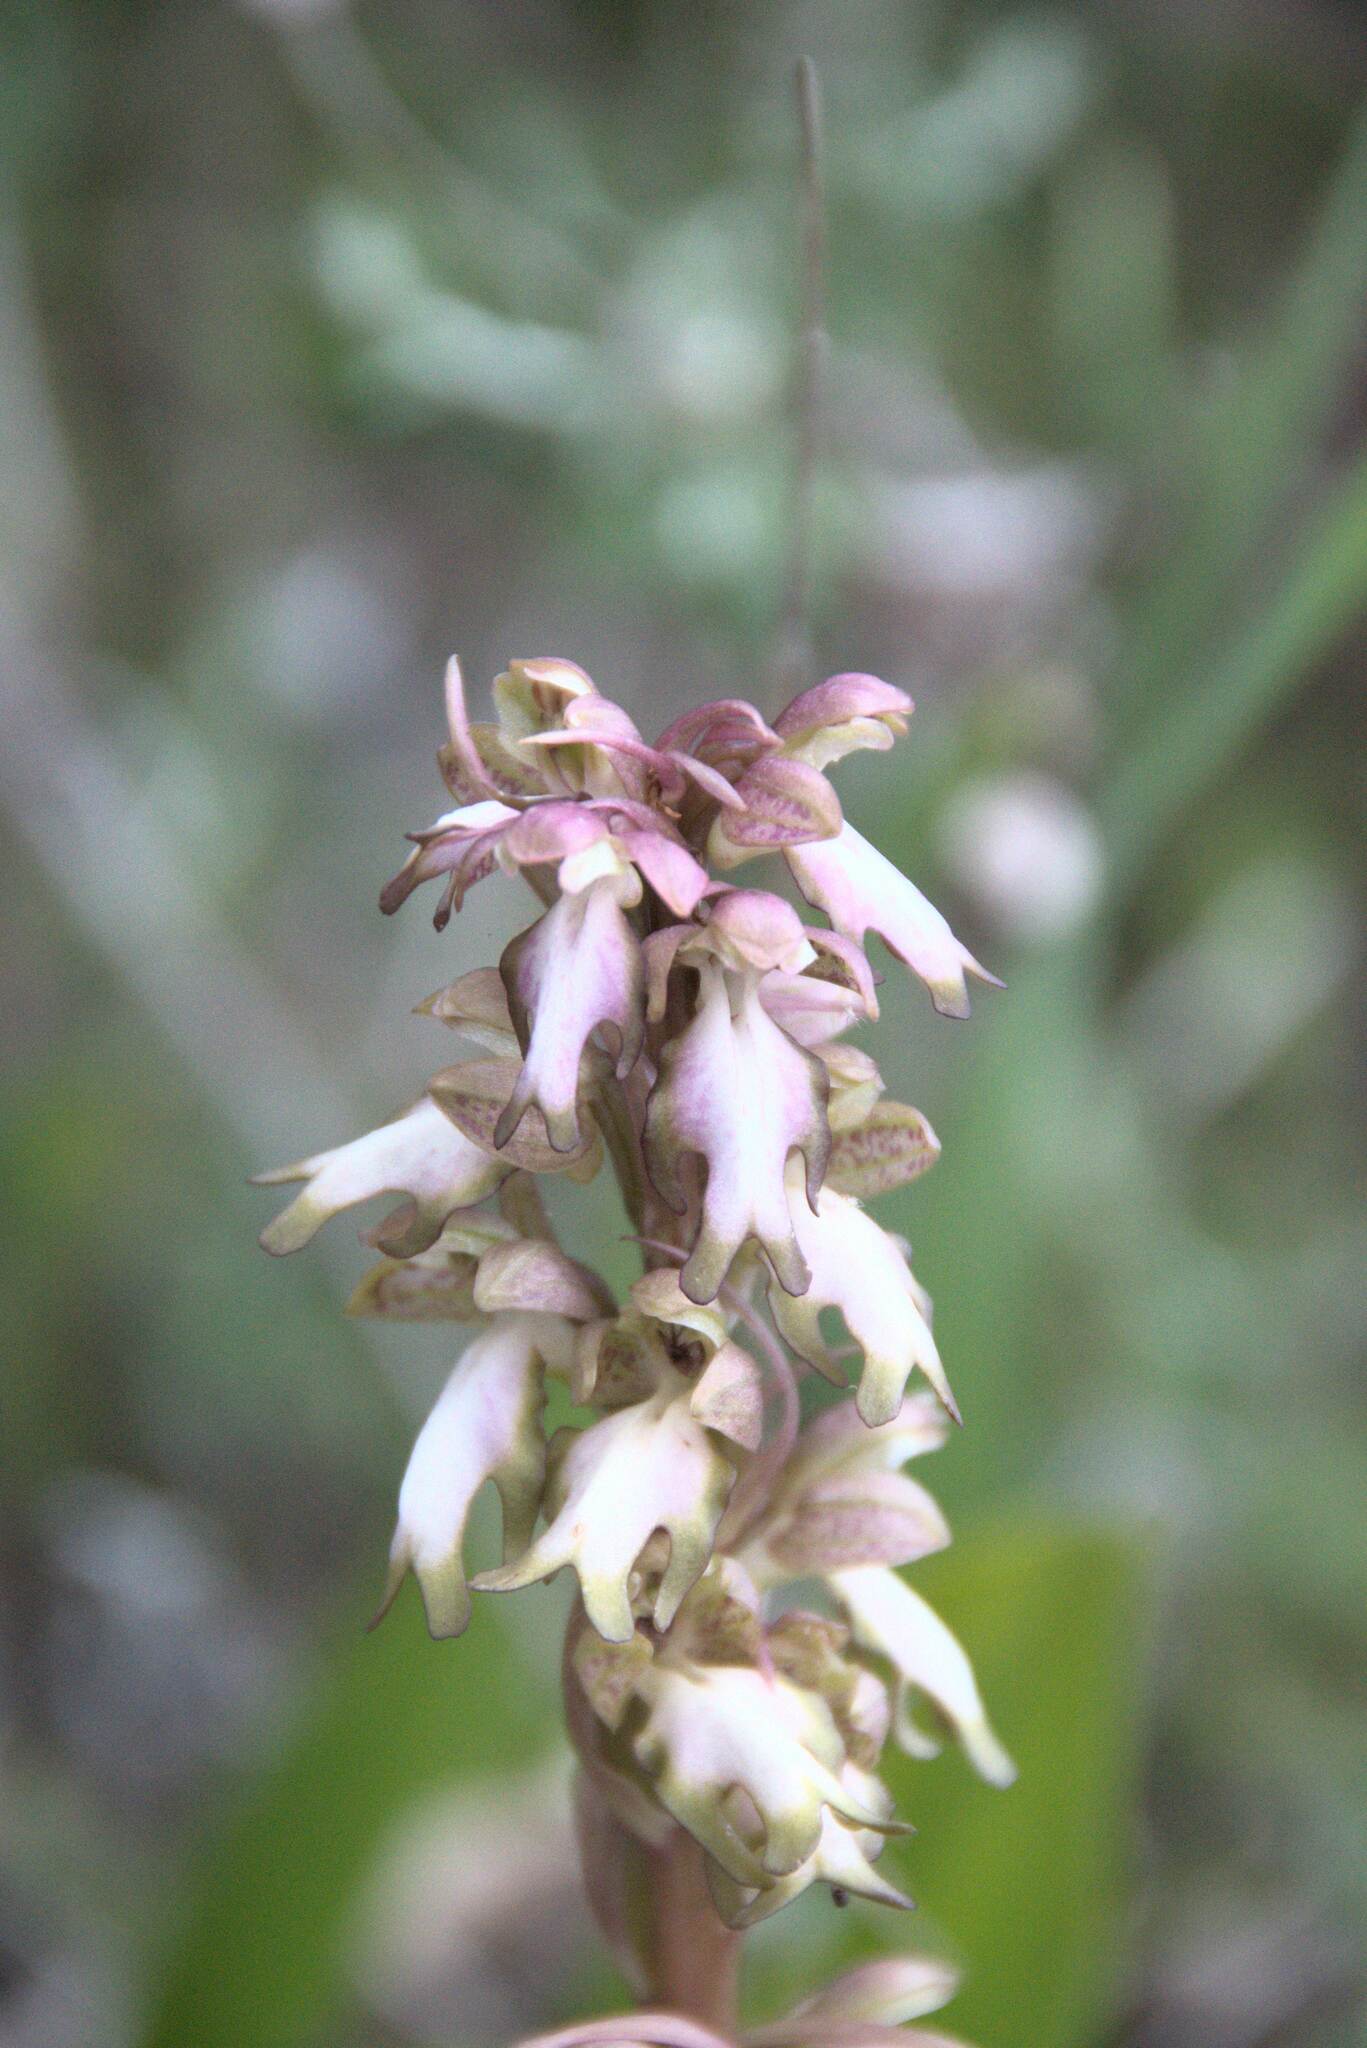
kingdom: Plantae
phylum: Tracheophyta
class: Liliopsida
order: Asparagales
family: Orchidaceae
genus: Himantoglossum
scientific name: Himantoglossum robertianum
